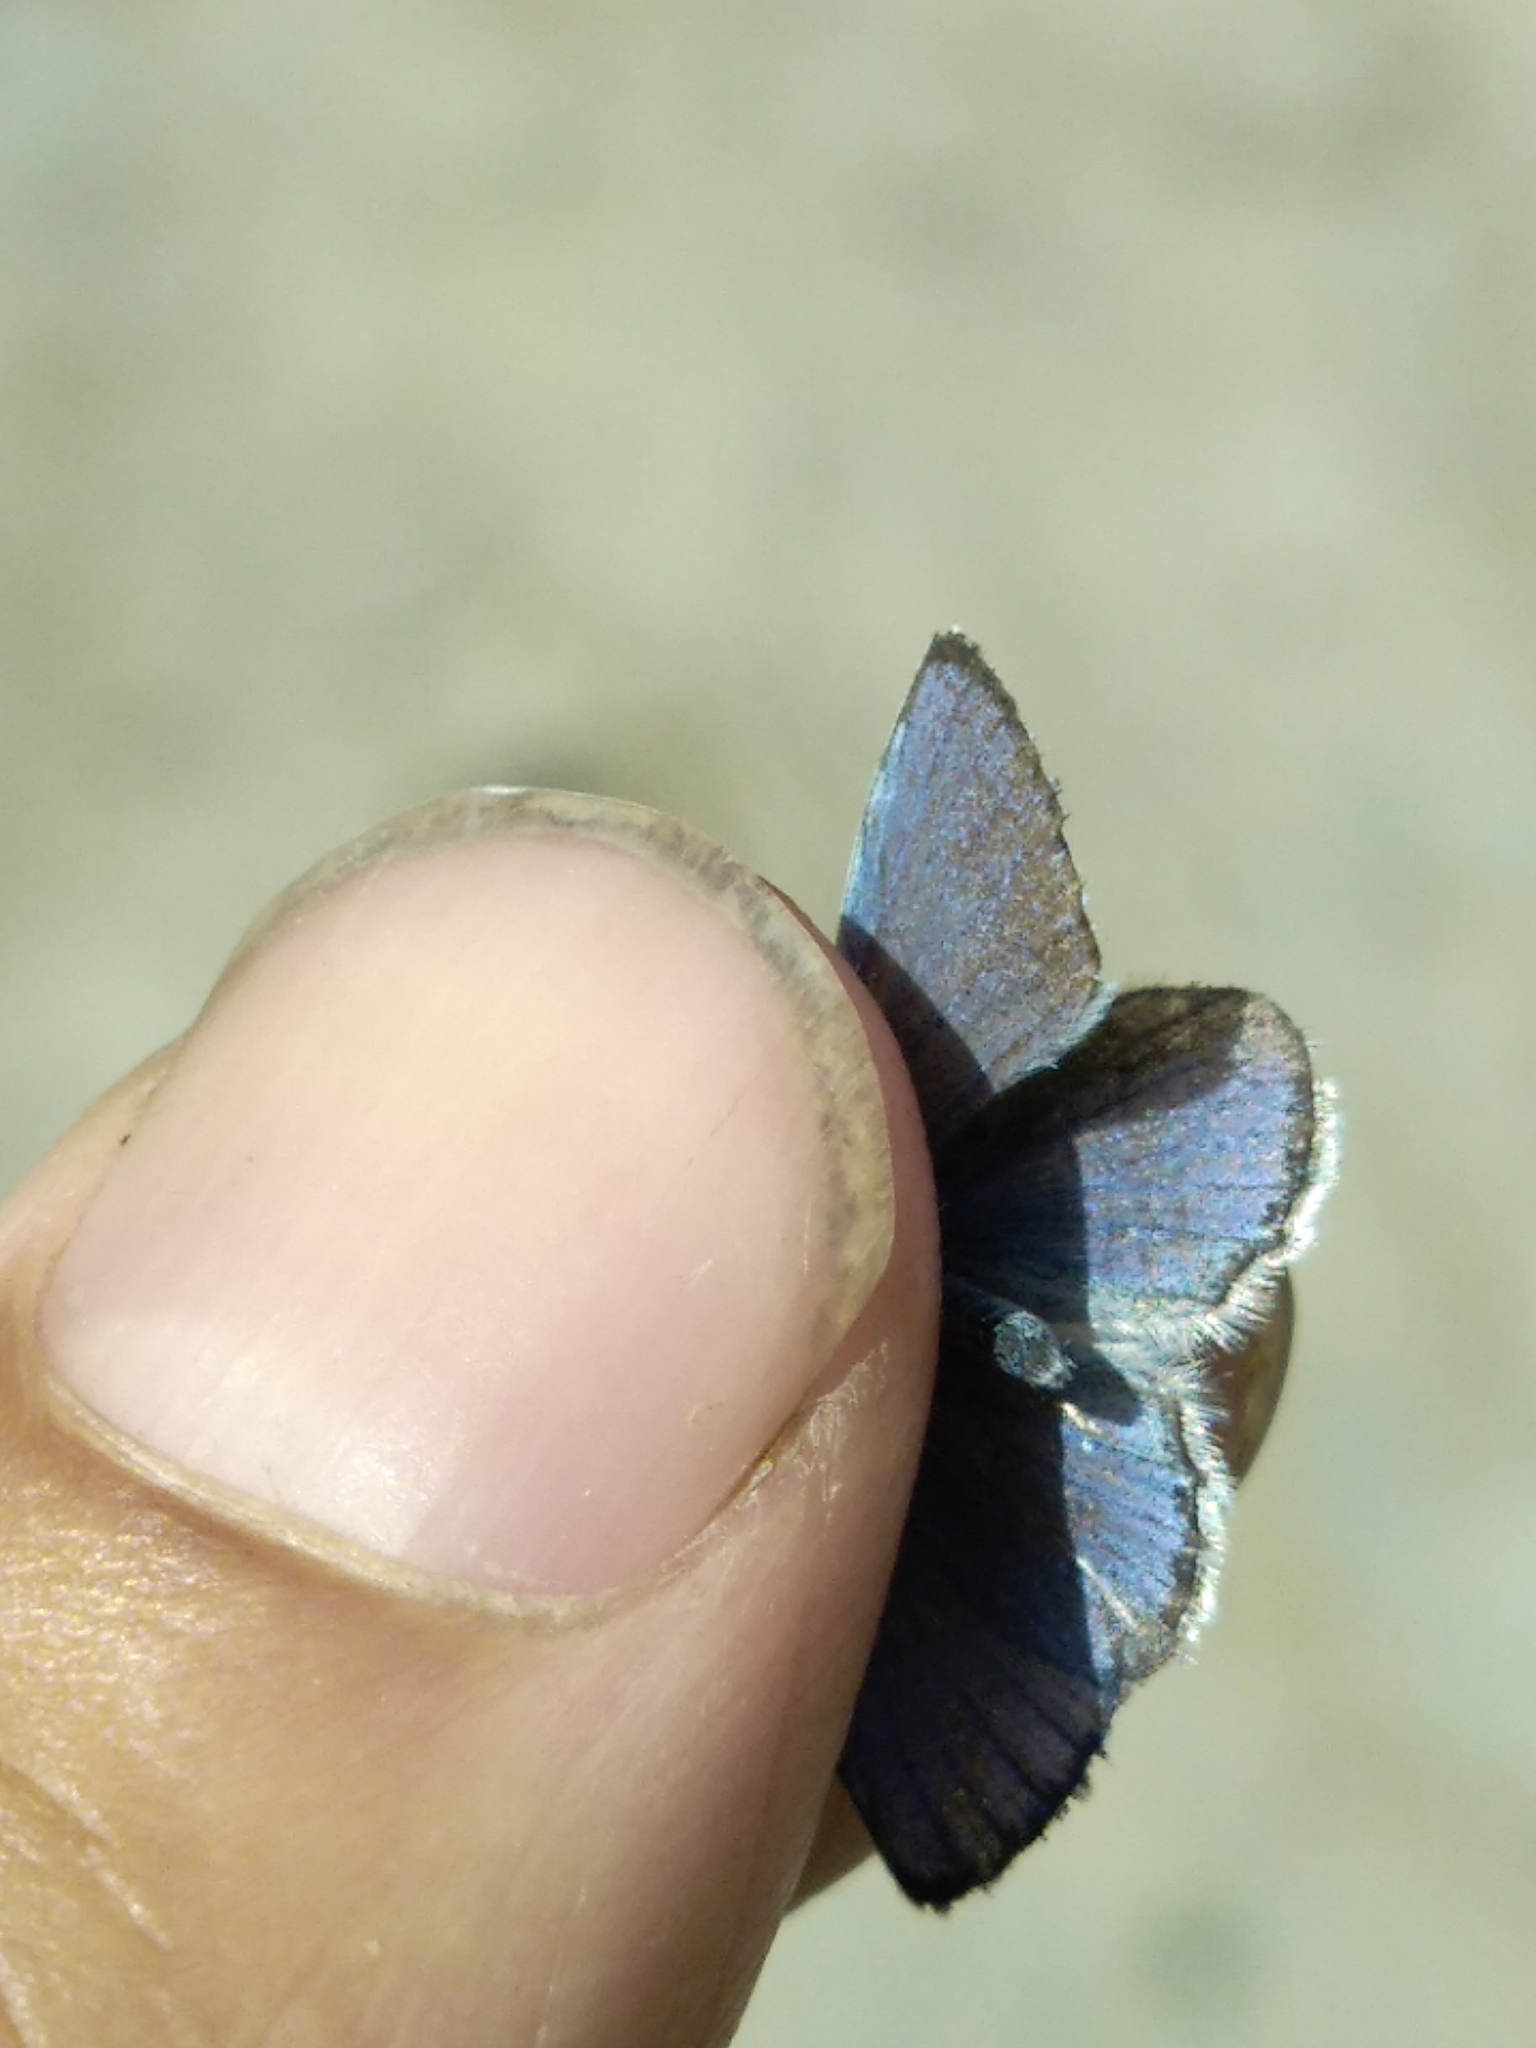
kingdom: Animalia
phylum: Arthropoda
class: Insecta
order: Lepidoptera
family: Lycaenidae
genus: Elkalyce
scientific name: Elkalyce alcetas
